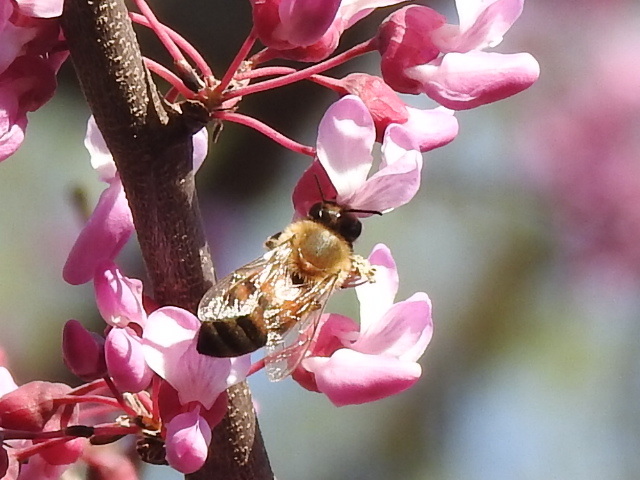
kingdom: Animalia
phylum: Arthropoda
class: Insecta
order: Hymenoptera
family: Apidae
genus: Apis
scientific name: Apis mellifera
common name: Honey bee
